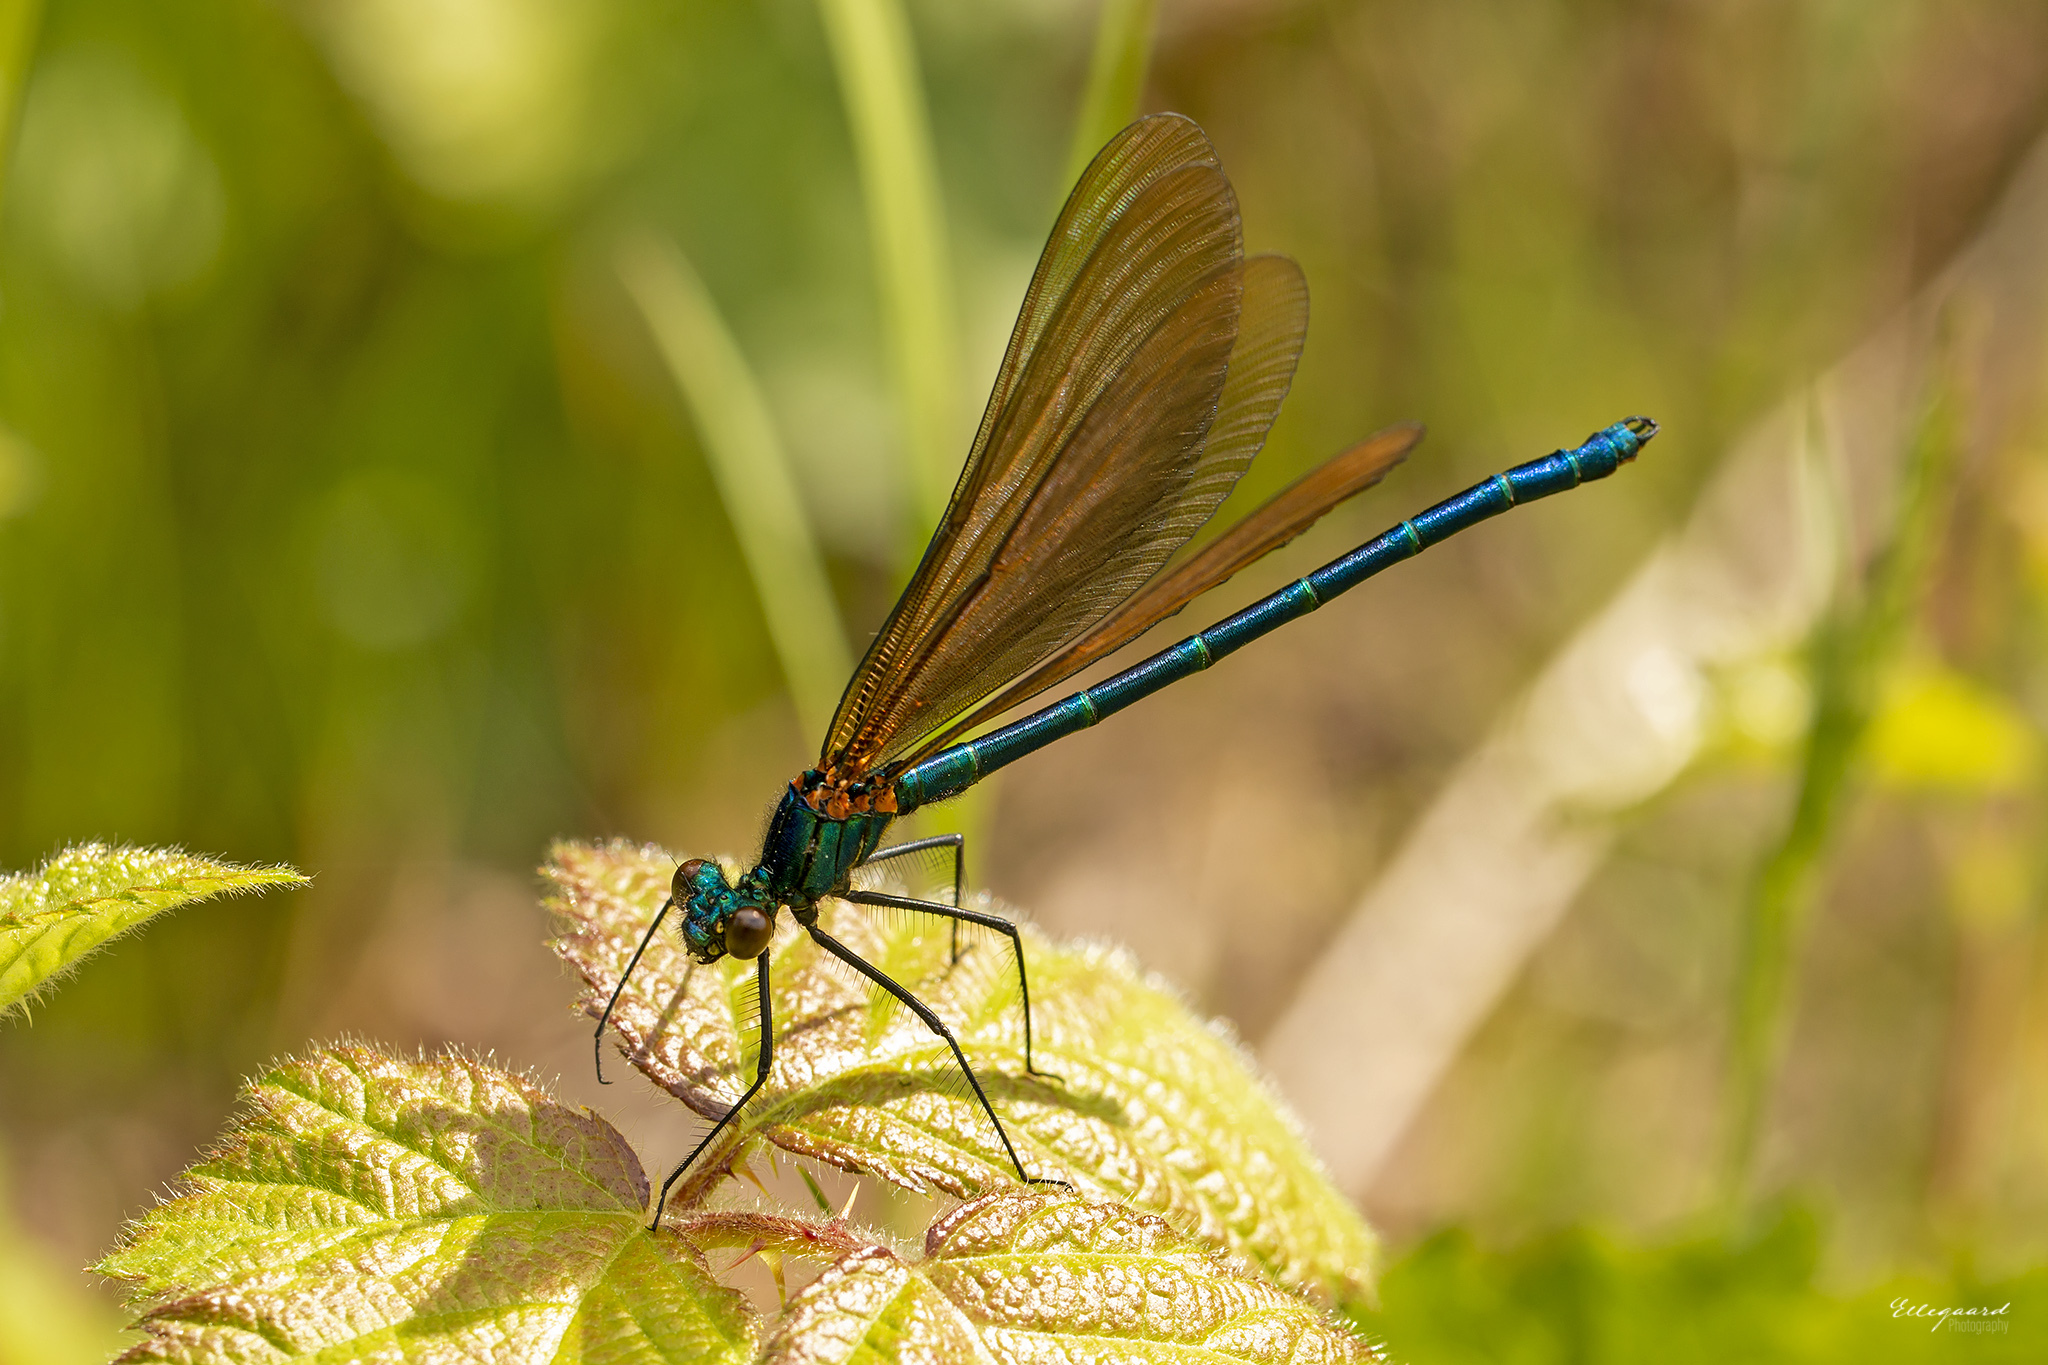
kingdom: Animalia
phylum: Arthropoda
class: Insecta
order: Odonata
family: Calopterygidae
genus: Calopteryx
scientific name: Calopteryx virgo
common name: Beautiful demoiselle
